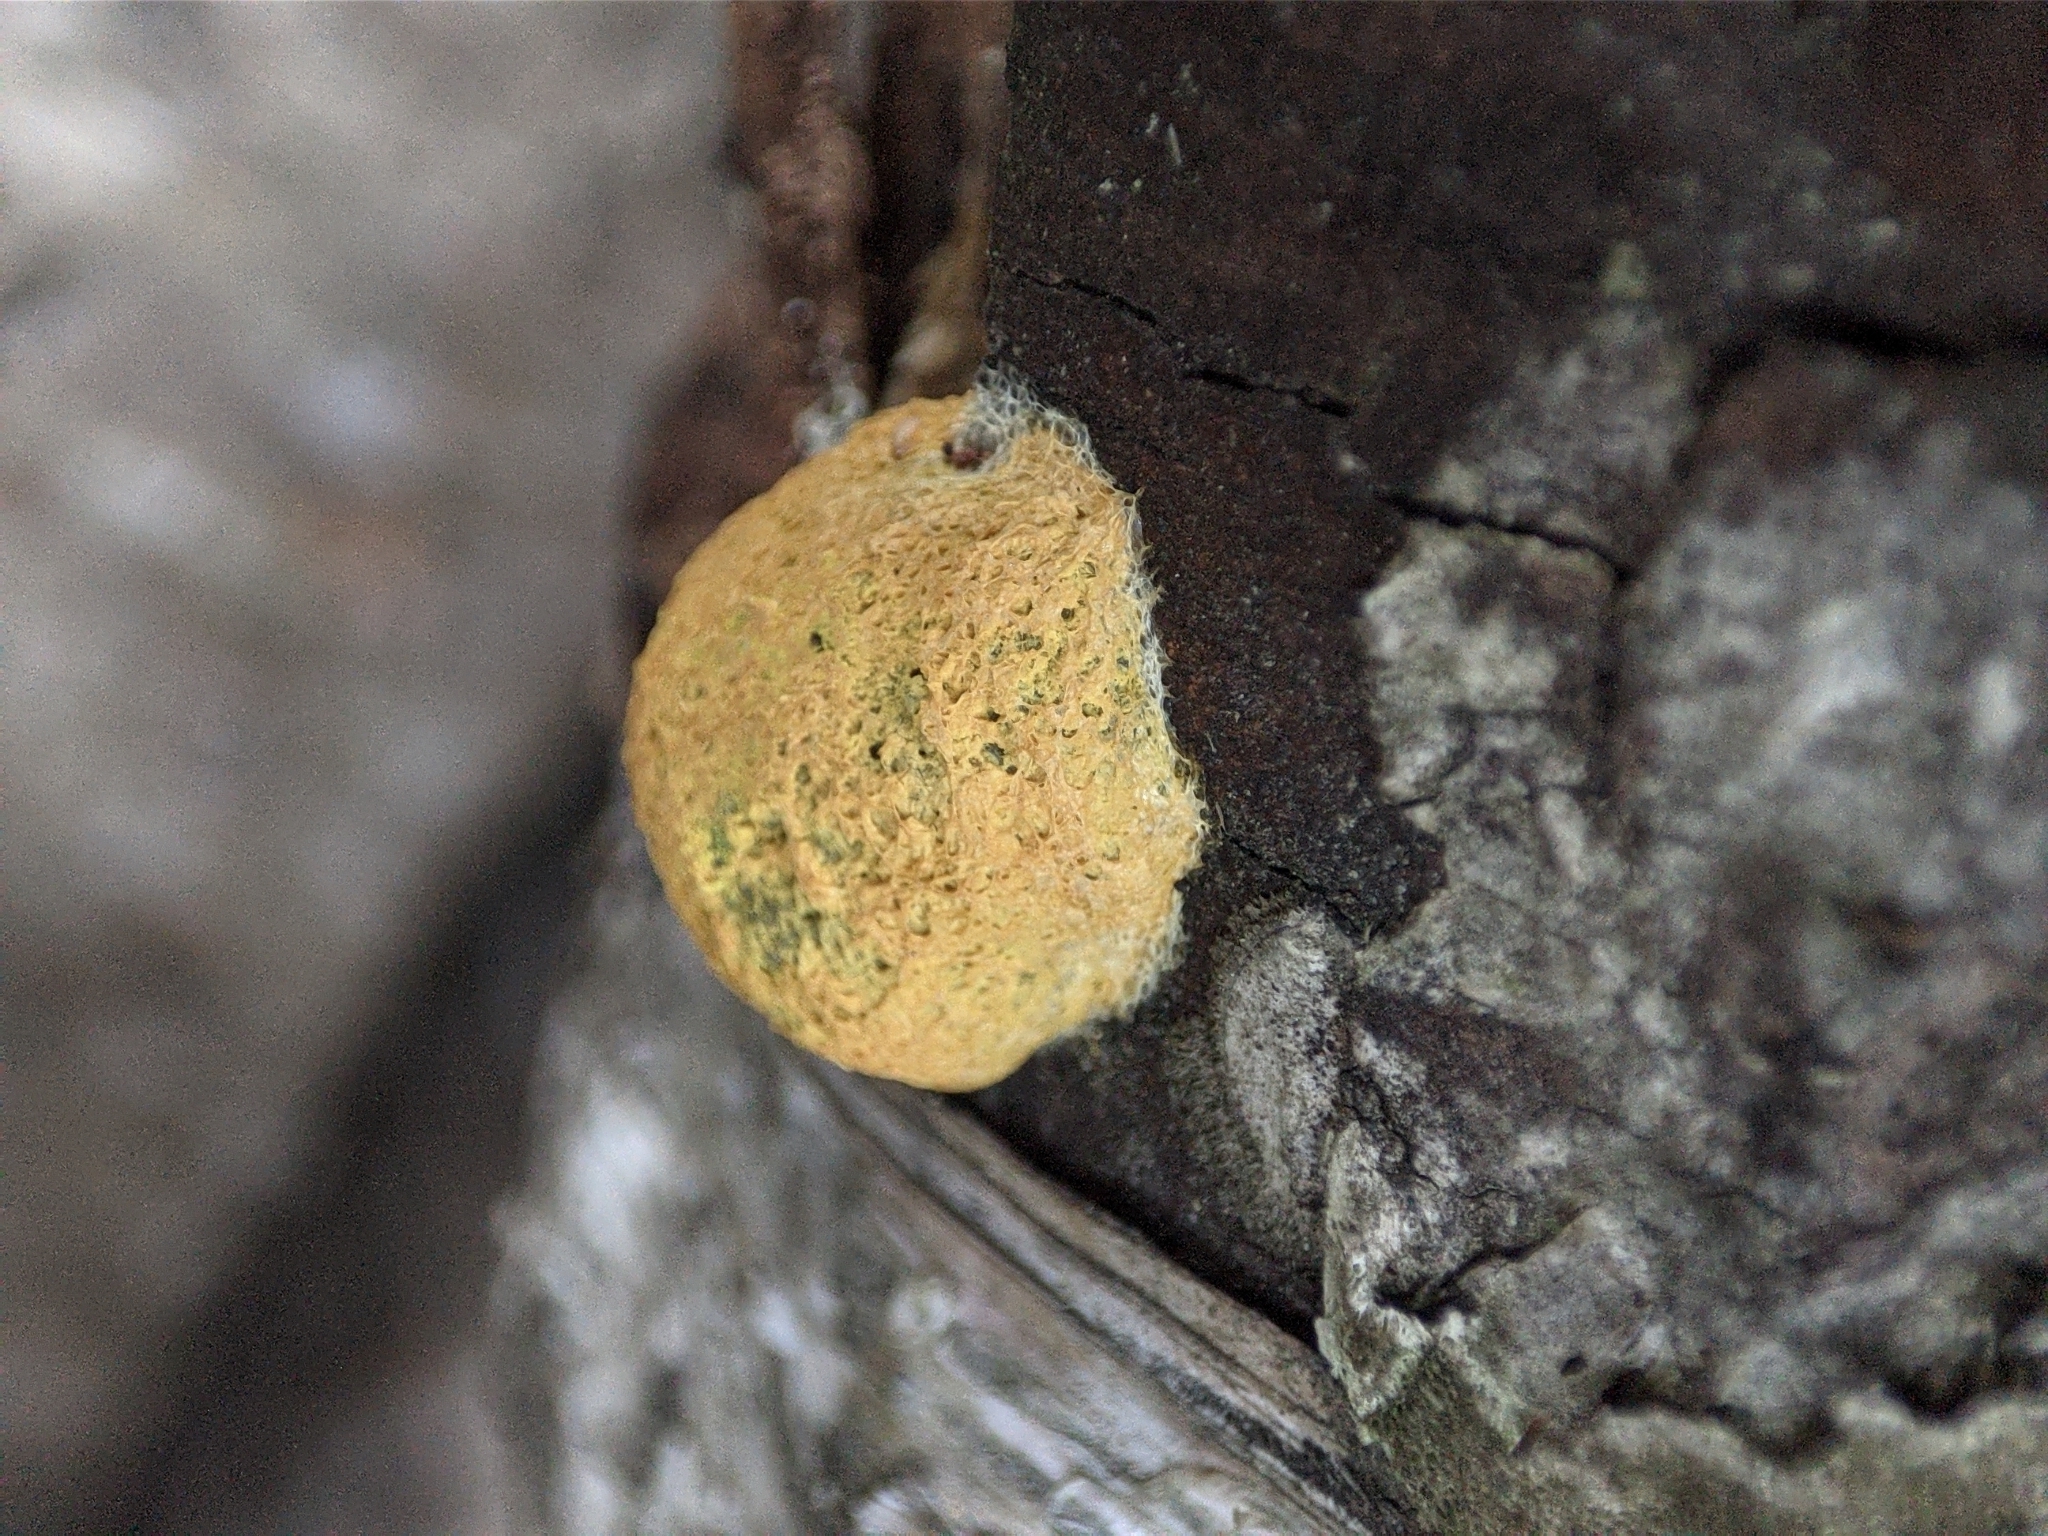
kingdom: Protozoa
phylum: Mycetozoa
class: Myxomycetes
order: Physarales
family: Physaraceae
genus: Fuligo
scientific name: Fuligo septica
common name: Dog vomit slime mold
